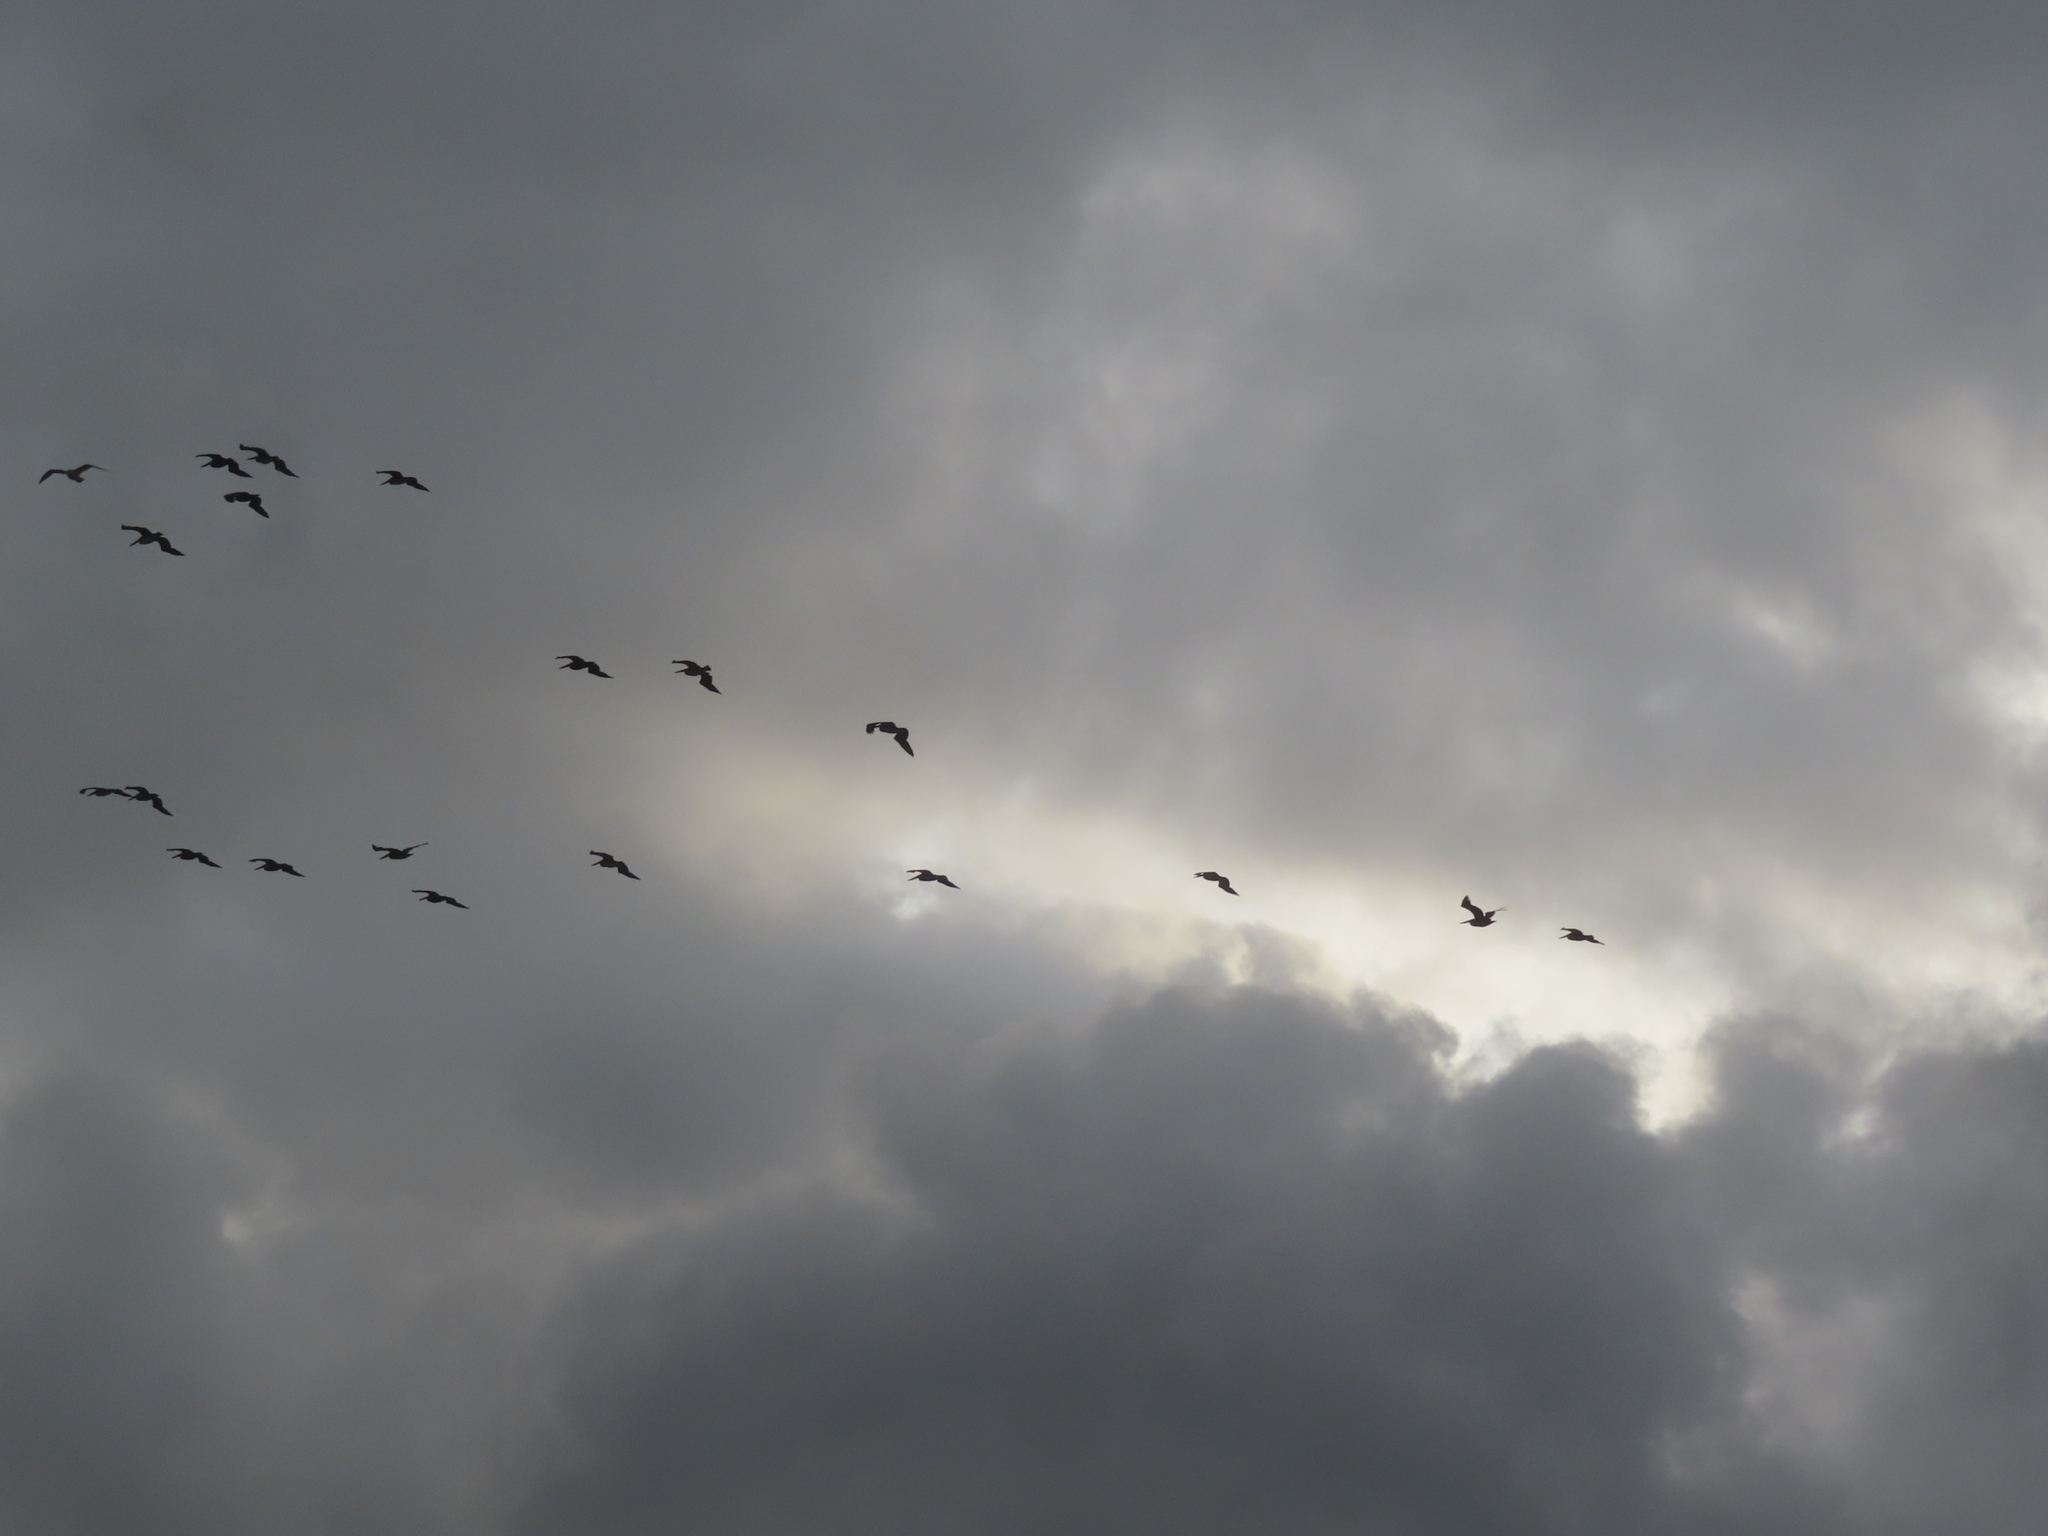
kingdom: Animalia
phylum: Chordata
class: Aves
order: Pelecaniformes
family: Pelecanidae
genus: Pelecanus
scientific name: Pelecanus occidentalis
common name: Brown pelican
